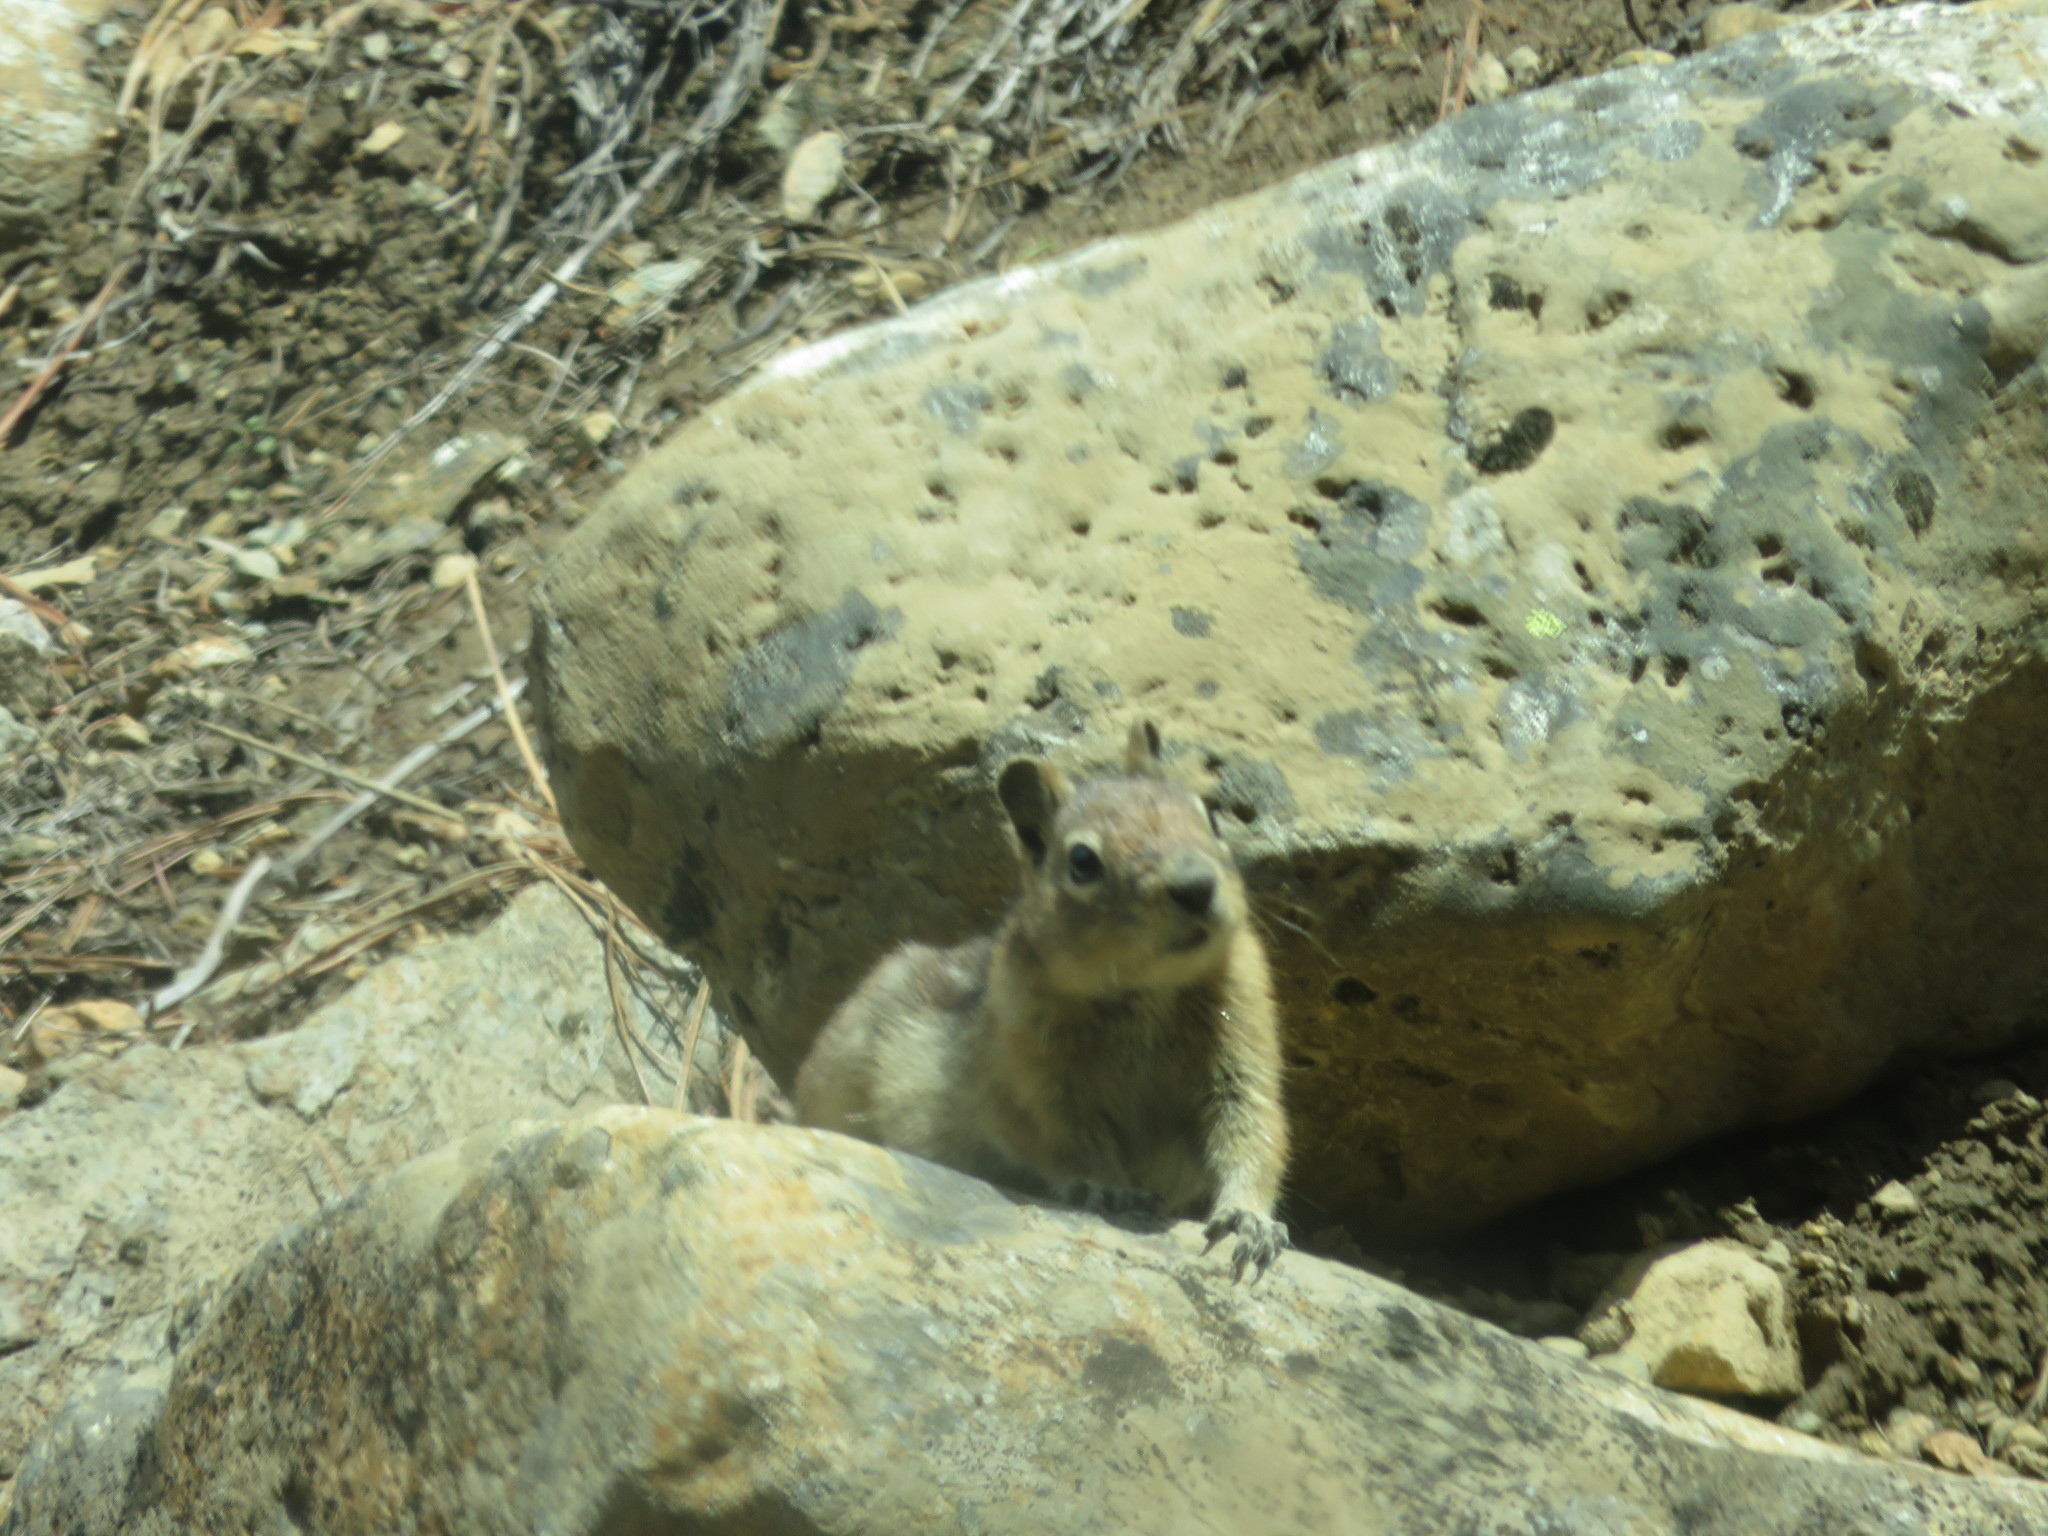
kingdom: Animalia
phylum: Chordata
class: Mammalia
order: Rodentia
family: Sciuridae
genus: Callospermophilus
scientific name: Callospermophilus saturatus
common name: Cascade golden-mantled ground squirrel
